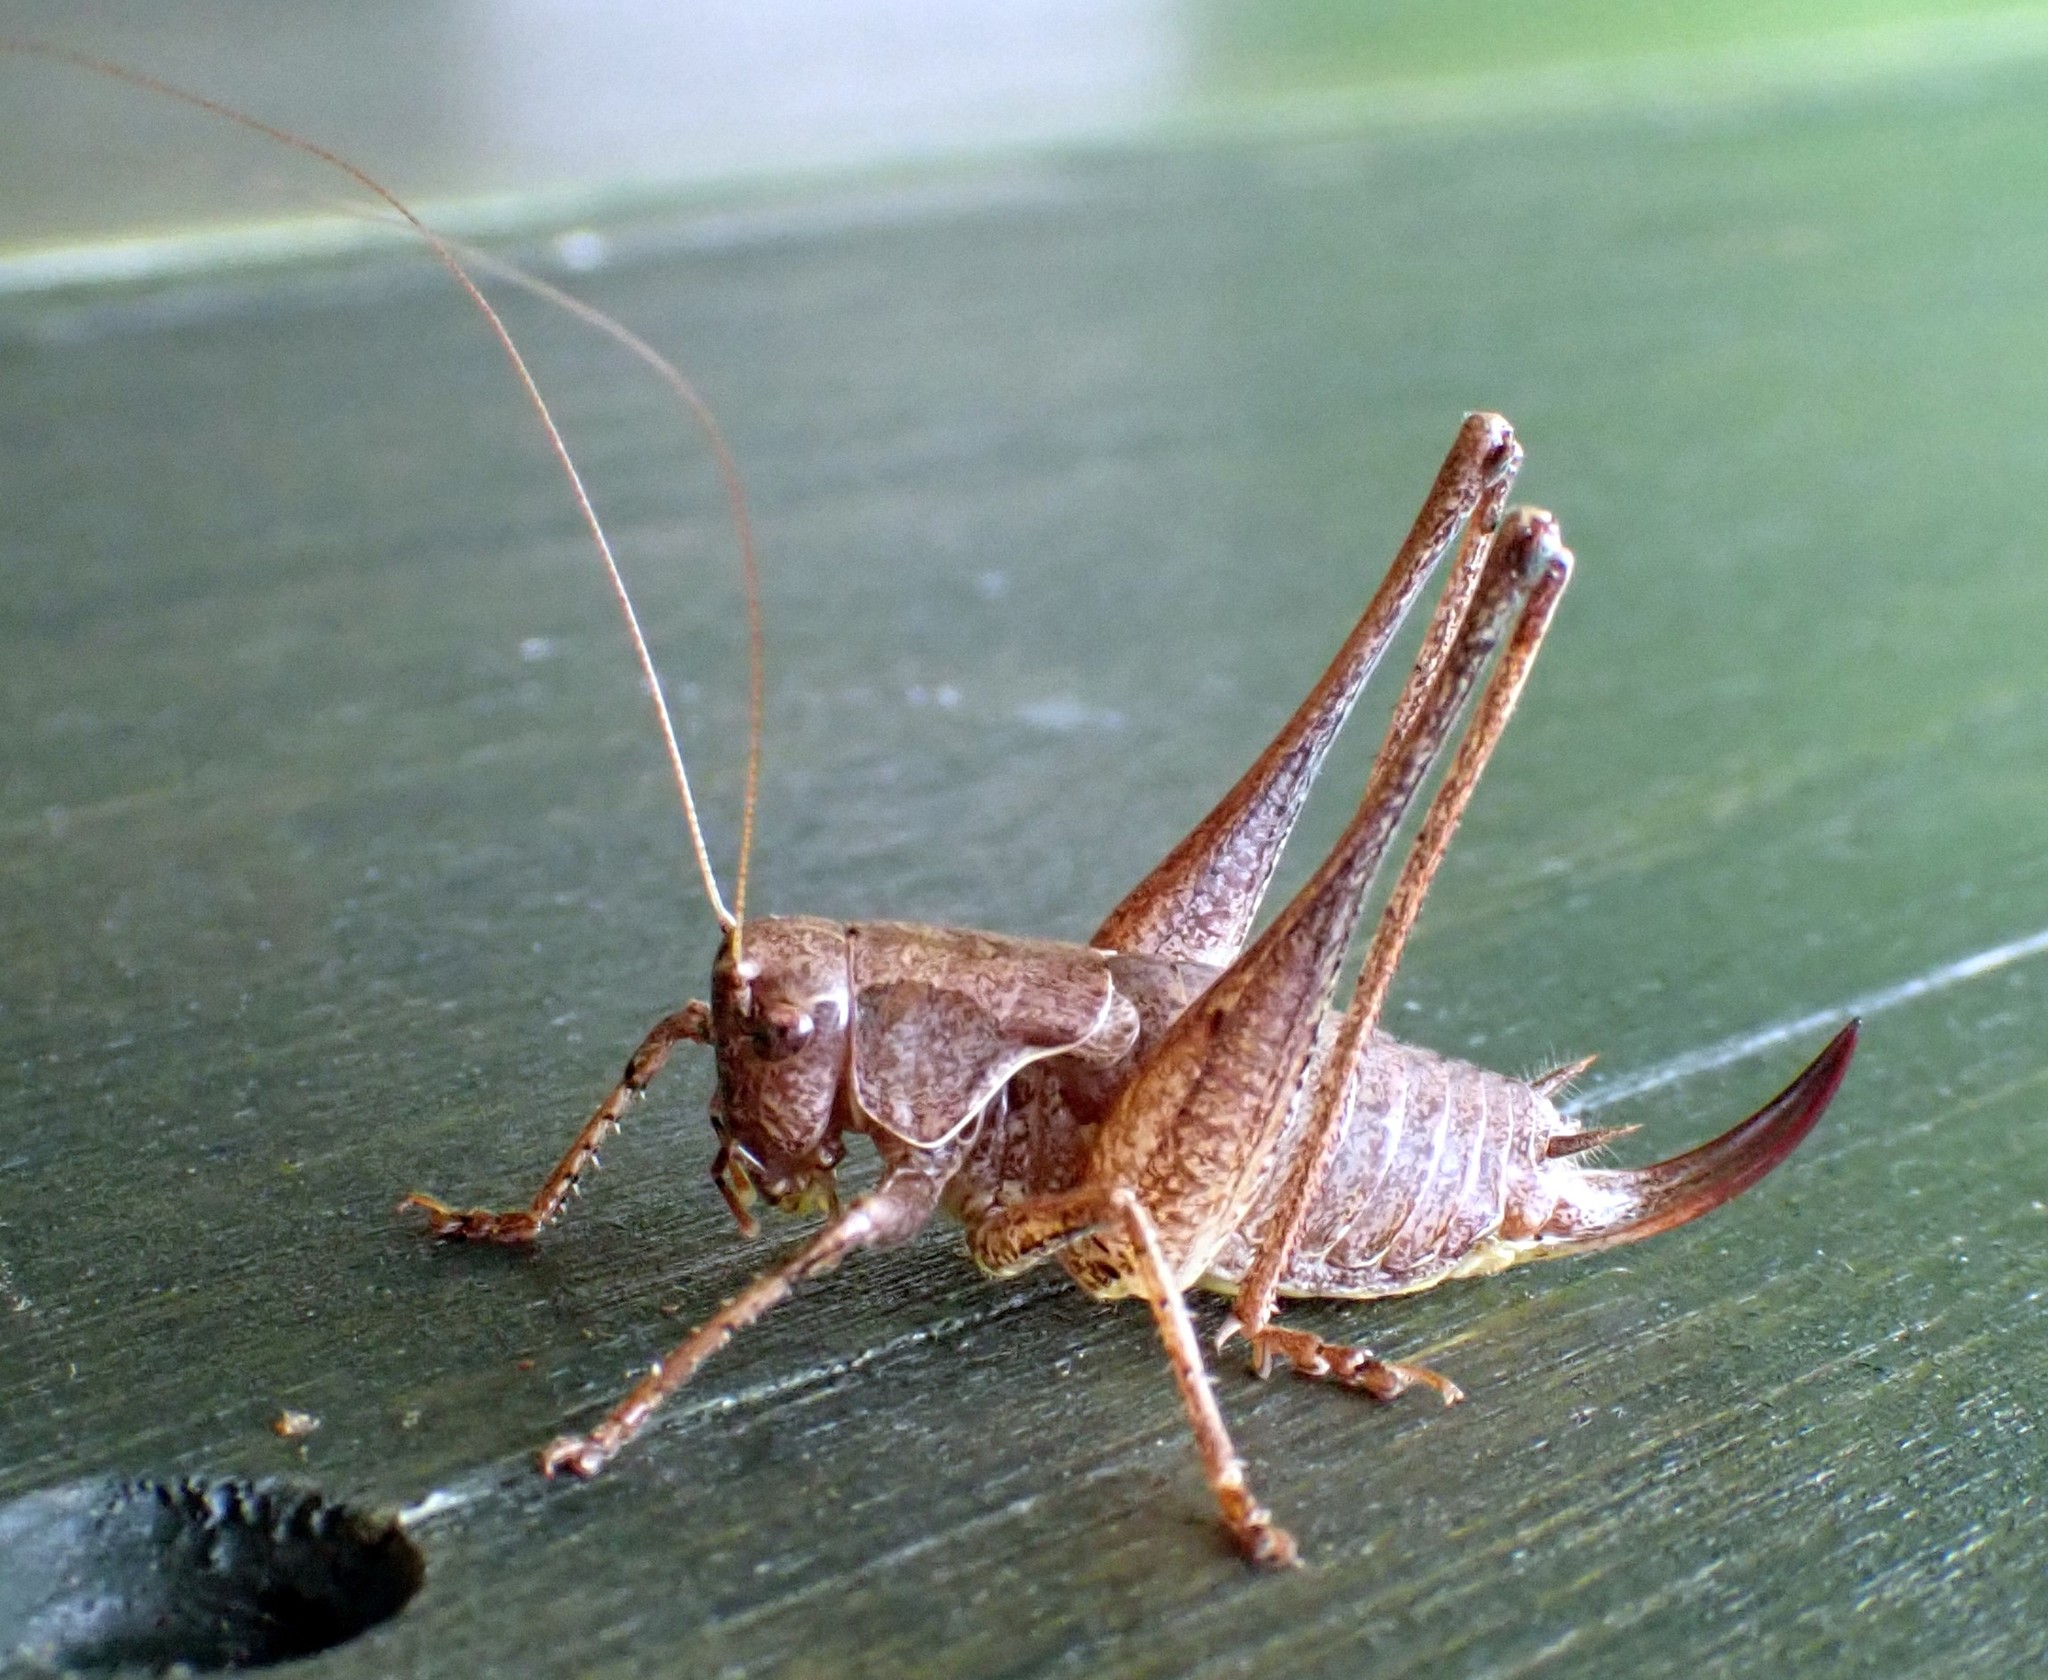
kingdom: Animalia
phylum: Arthropoda
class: Insecta
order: Orthoptera
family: Tettigoniidae
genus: Pholidoptera
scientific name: Pholidoptera griseoaptera
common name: Dark bush-cricket
